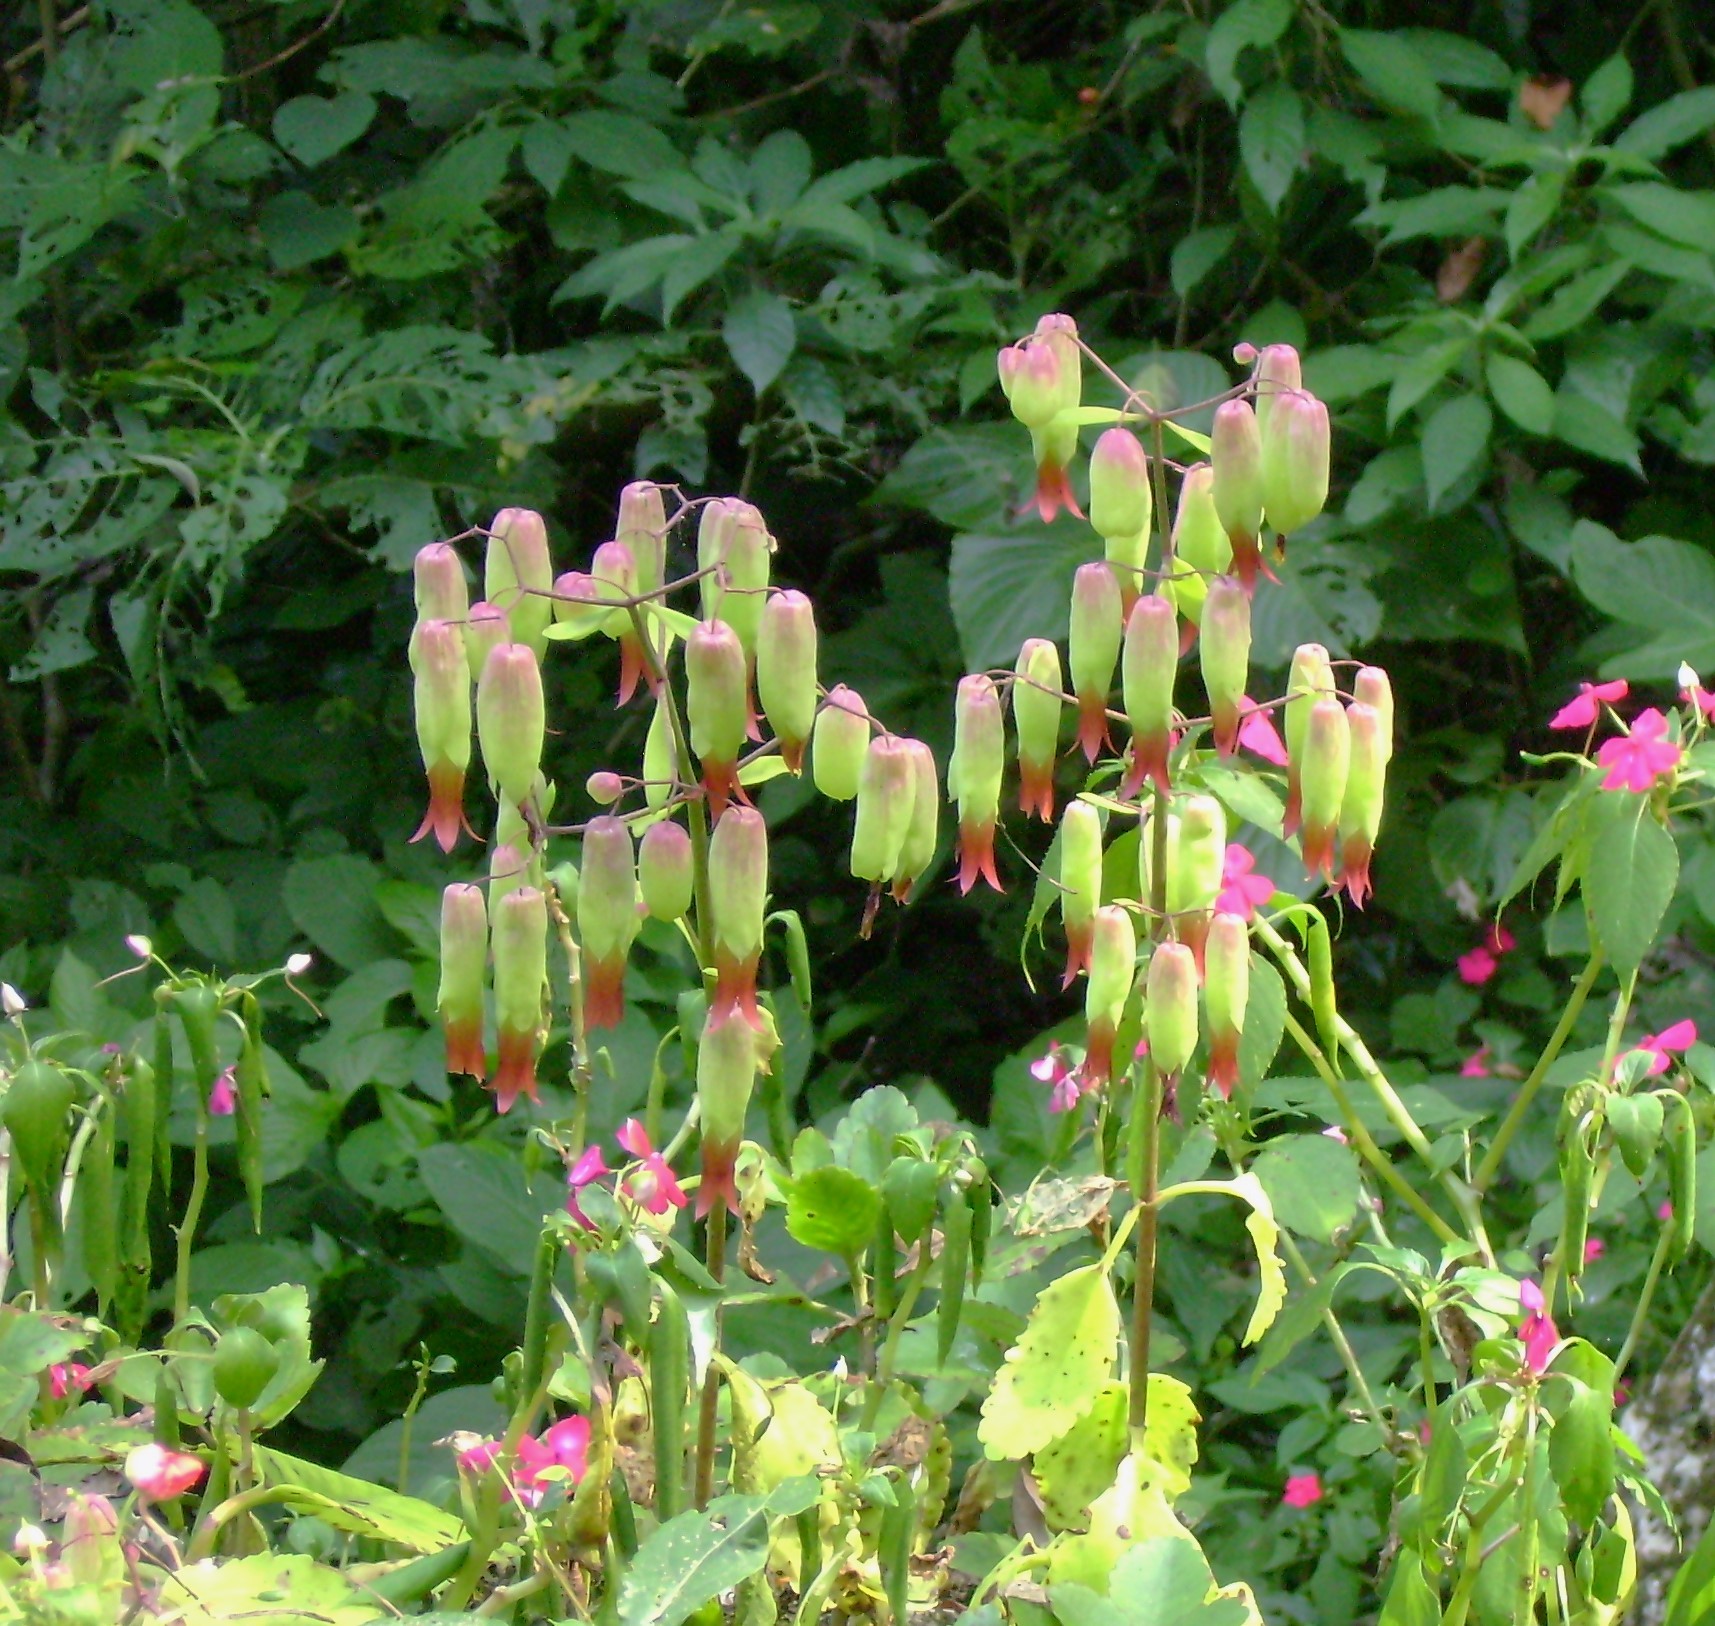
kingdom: Plantae
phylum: Tracheophyta
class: Magnoliopsida
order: Saxifragales
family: Crassulaceae
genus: Kalanchoe
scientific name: Kalanchoe pinnata
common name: Cathedral bells
